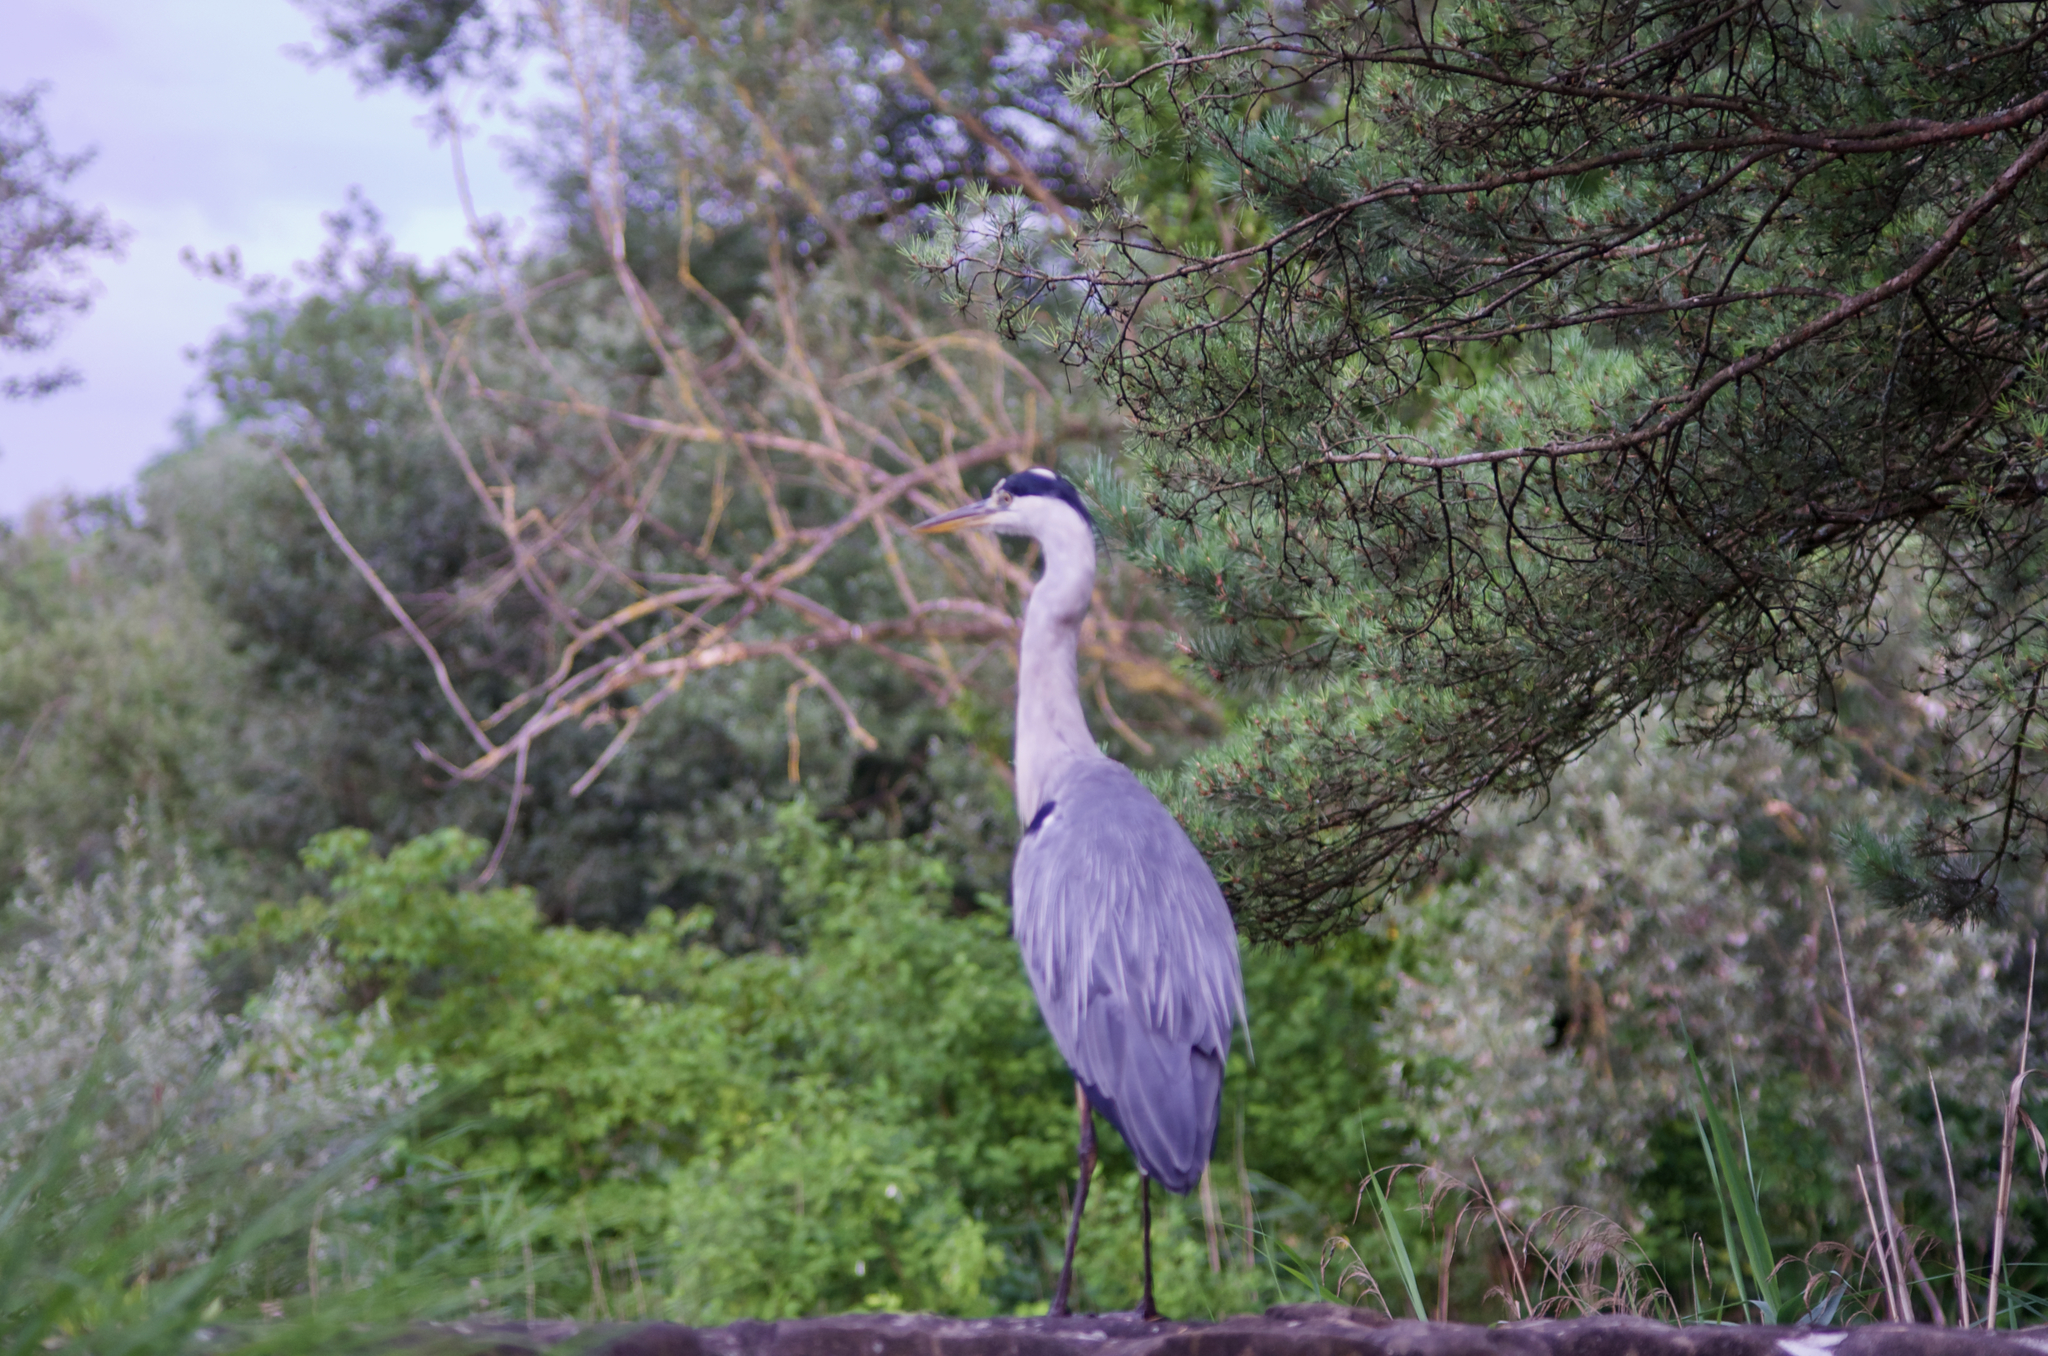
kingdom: Animalia
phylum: Chordata
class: Aves
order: Pelecaniformes
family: Ardeidae
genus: Ardea
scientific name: Ardea cinerea
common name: Grey heron
